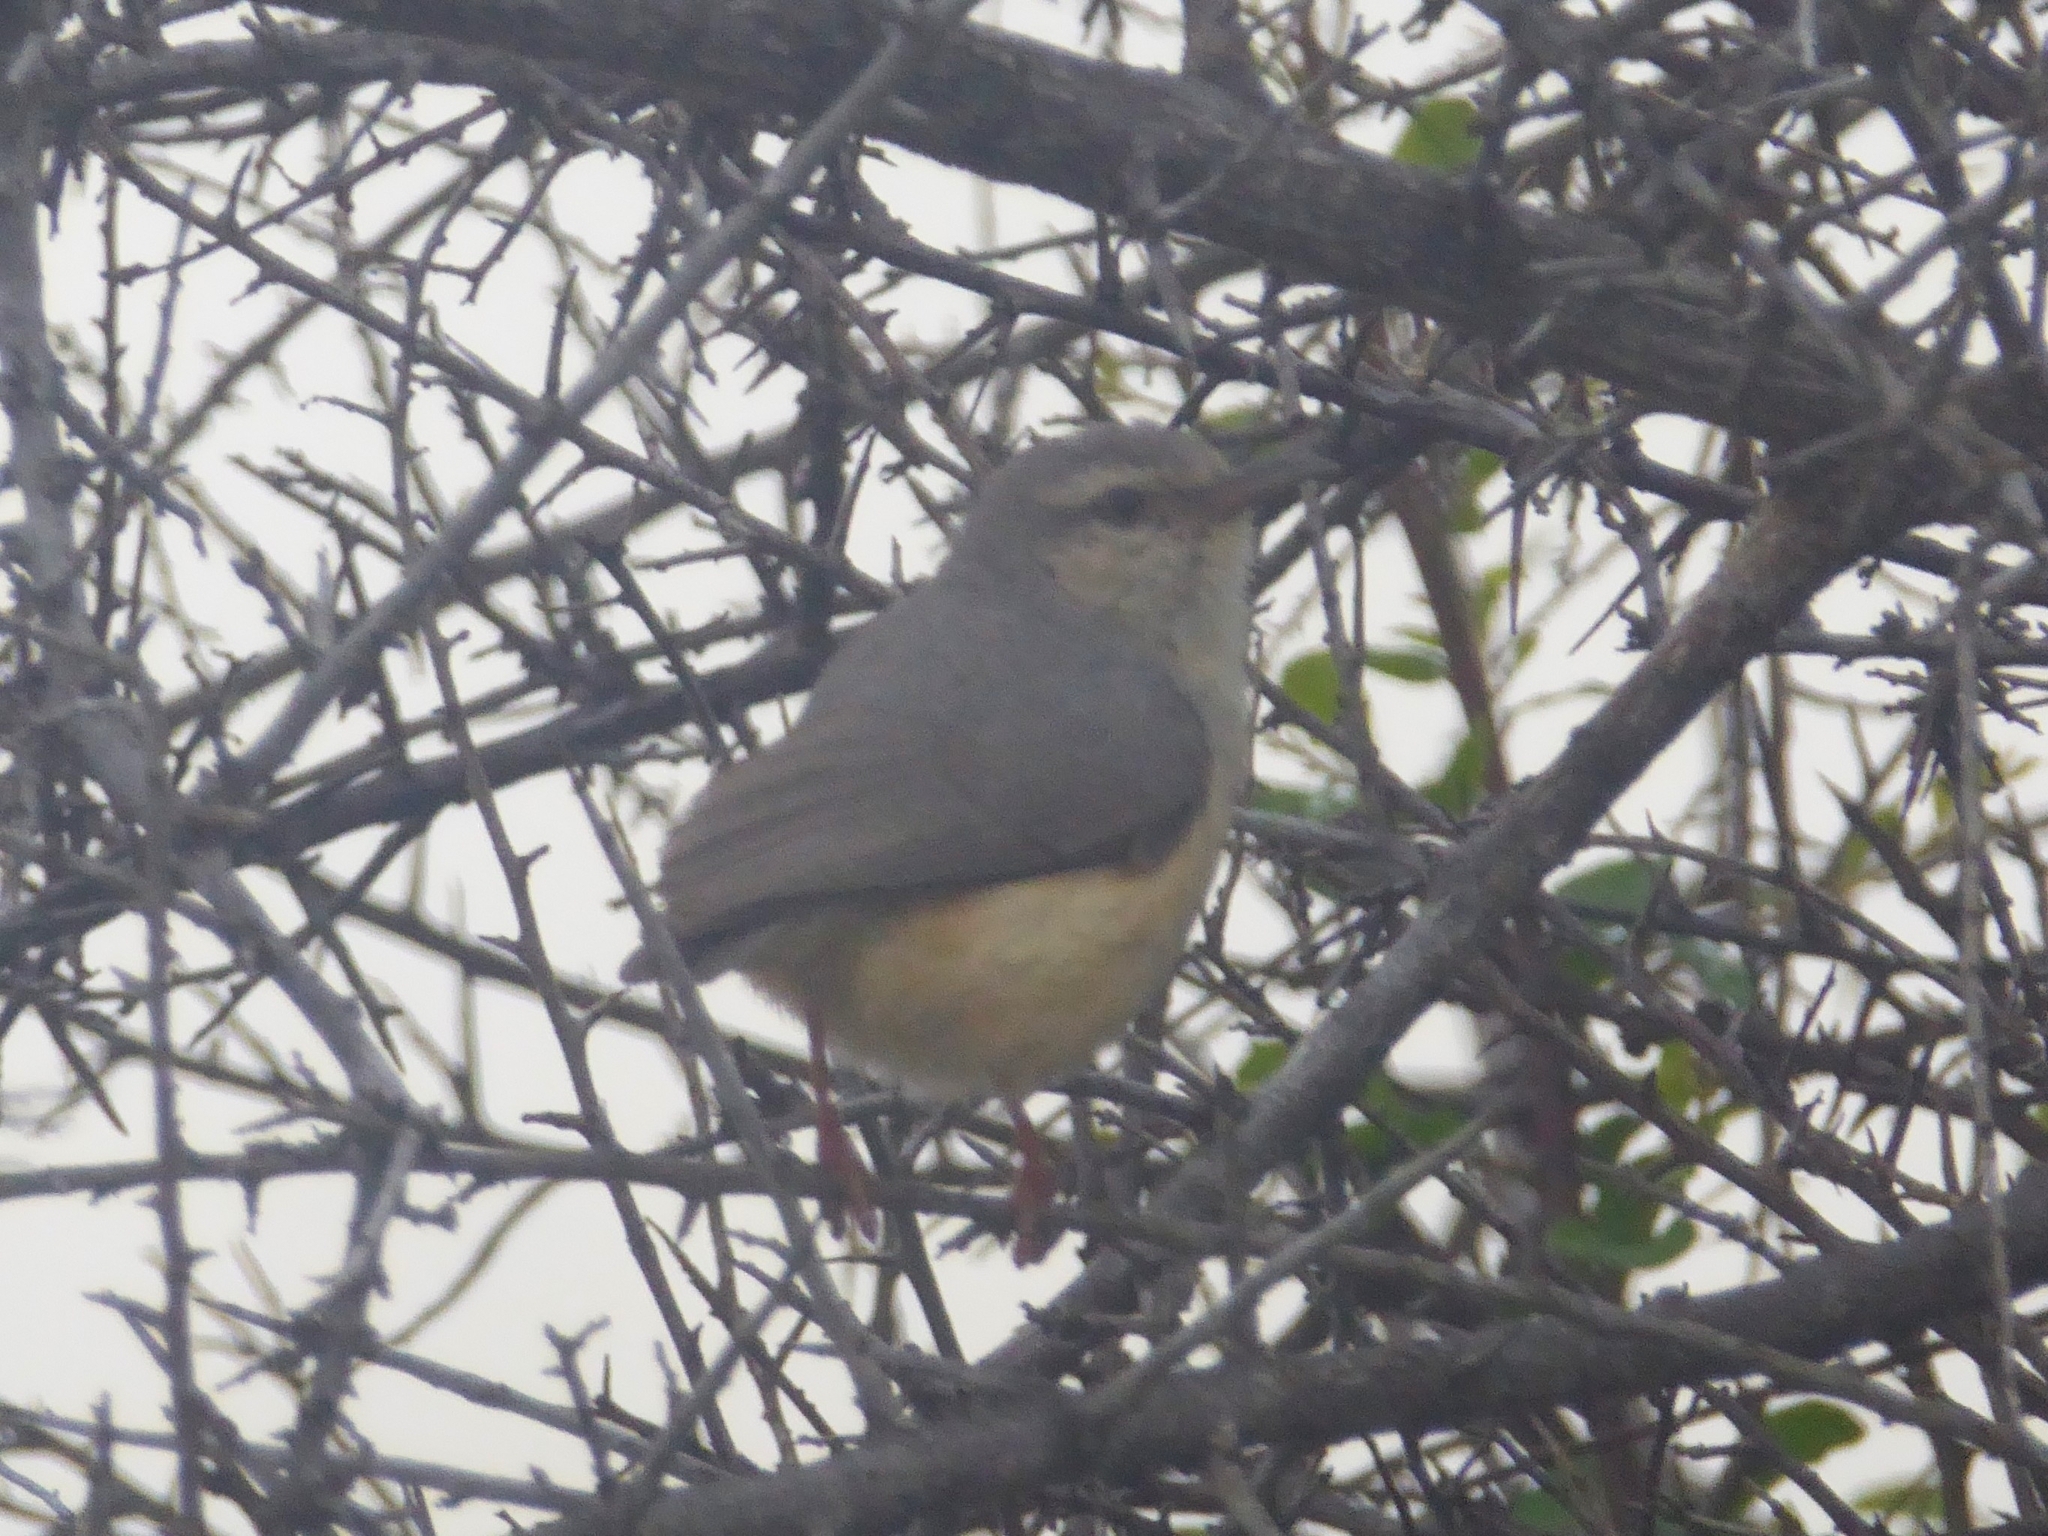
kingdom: Animalia
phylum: Chordata
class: Aves
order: Passeriformes
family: Macrosphenidae
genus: Sylvietta
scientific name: Sylvietta rufescens
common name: Long-billed crombec
